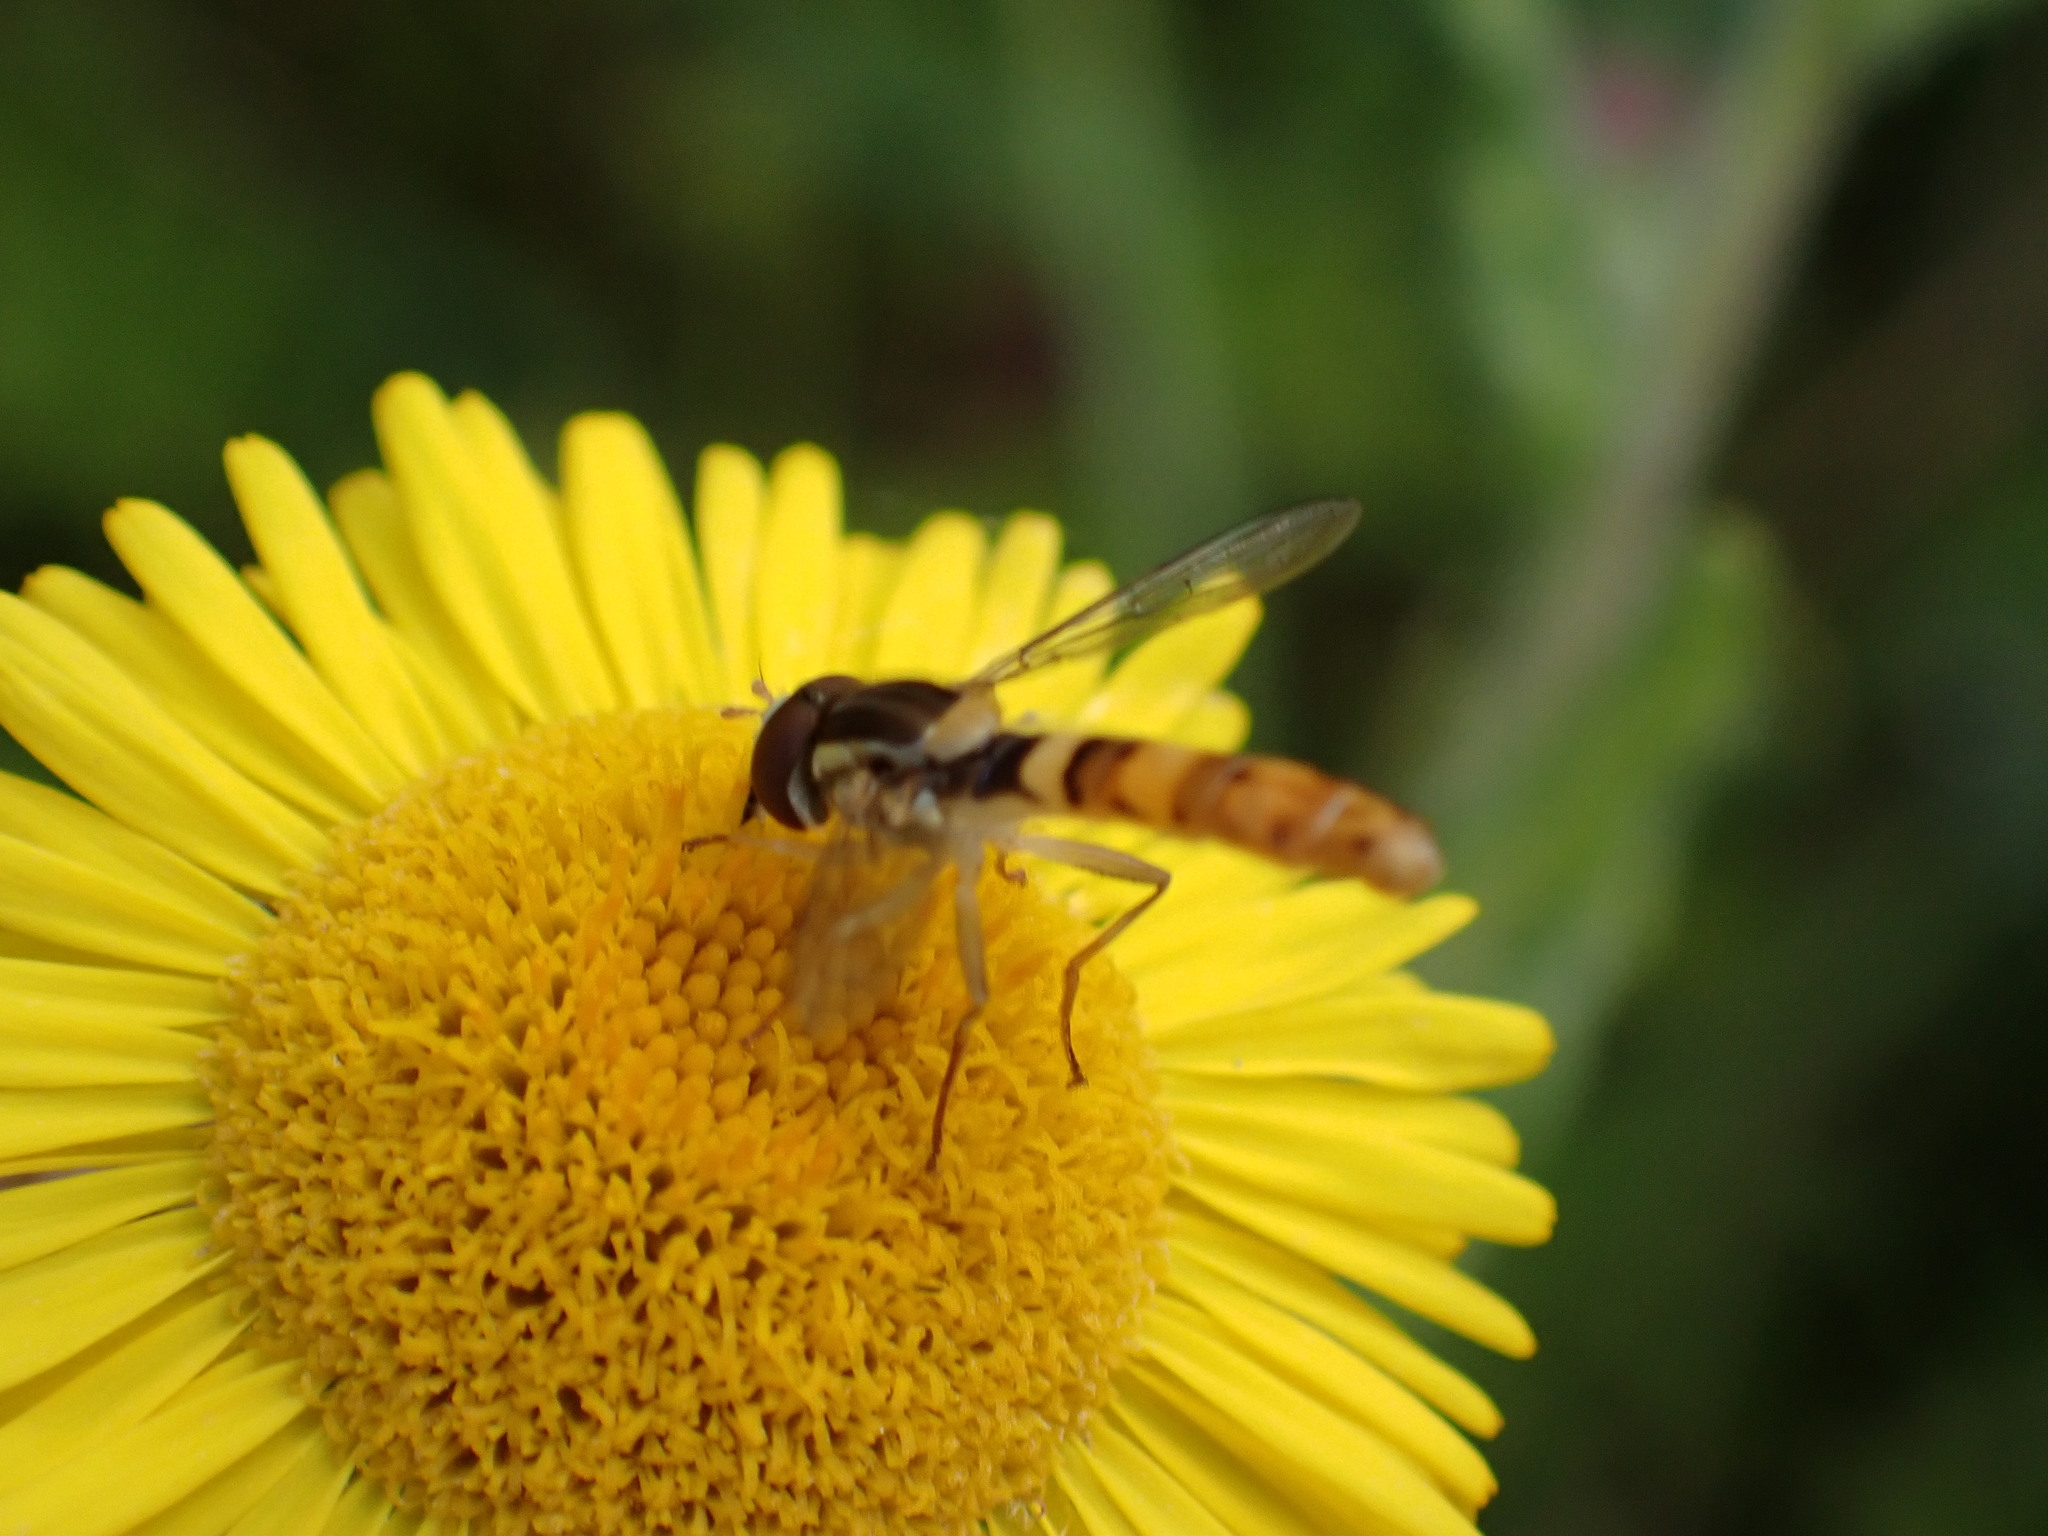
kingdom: Animalia
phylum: Arthropoda
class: Insecta
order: Diptera
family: Syrphidae
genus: Sphaerophoria
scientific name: Sphaerophoria scripta
